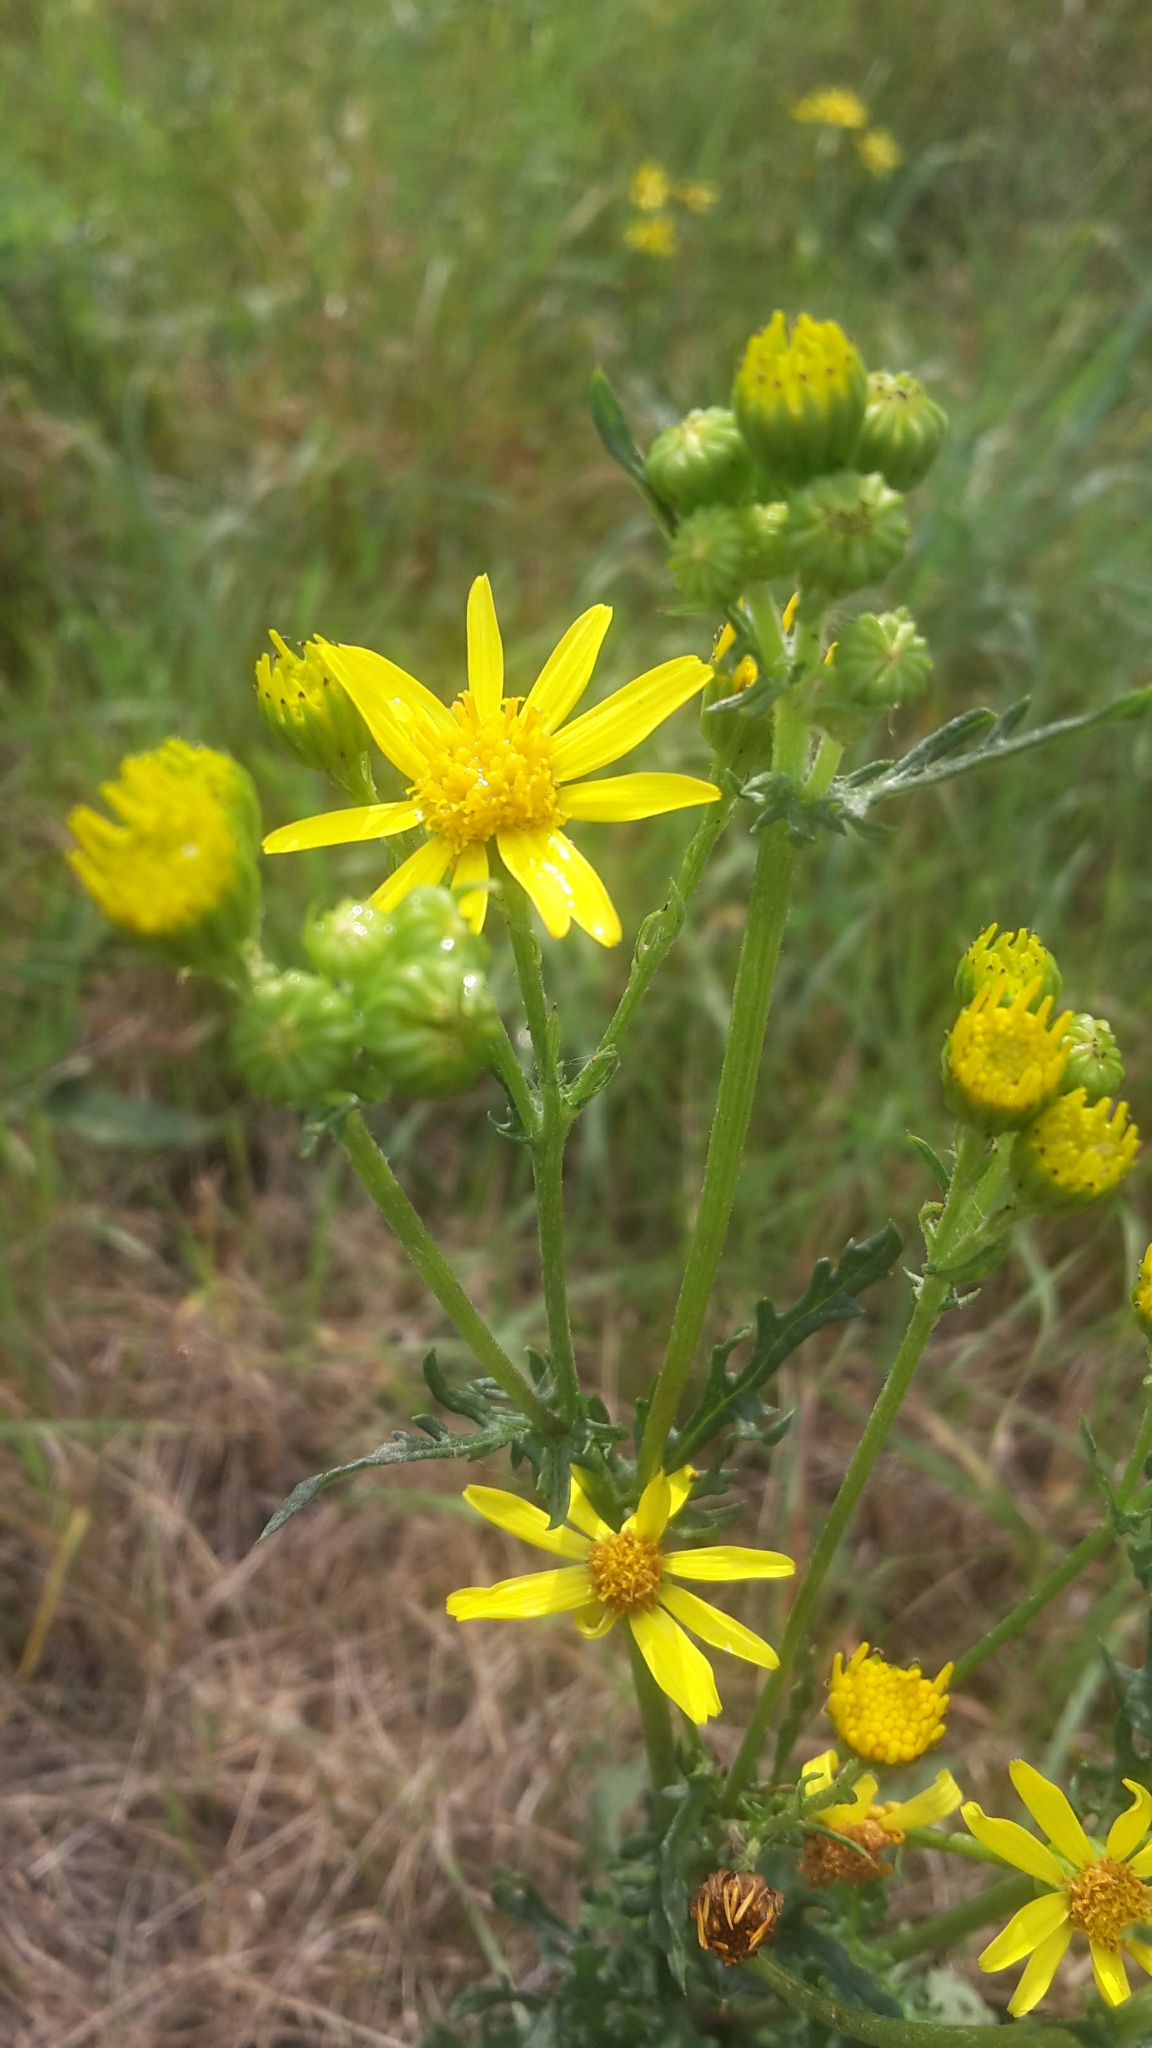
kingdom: Plantae
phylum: Tracheophyta
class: Magnoliopsida
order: Asterales
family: Asteraceae
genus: Jacobaea
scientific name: Jacobaea vulgaris
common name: Stinking willie
